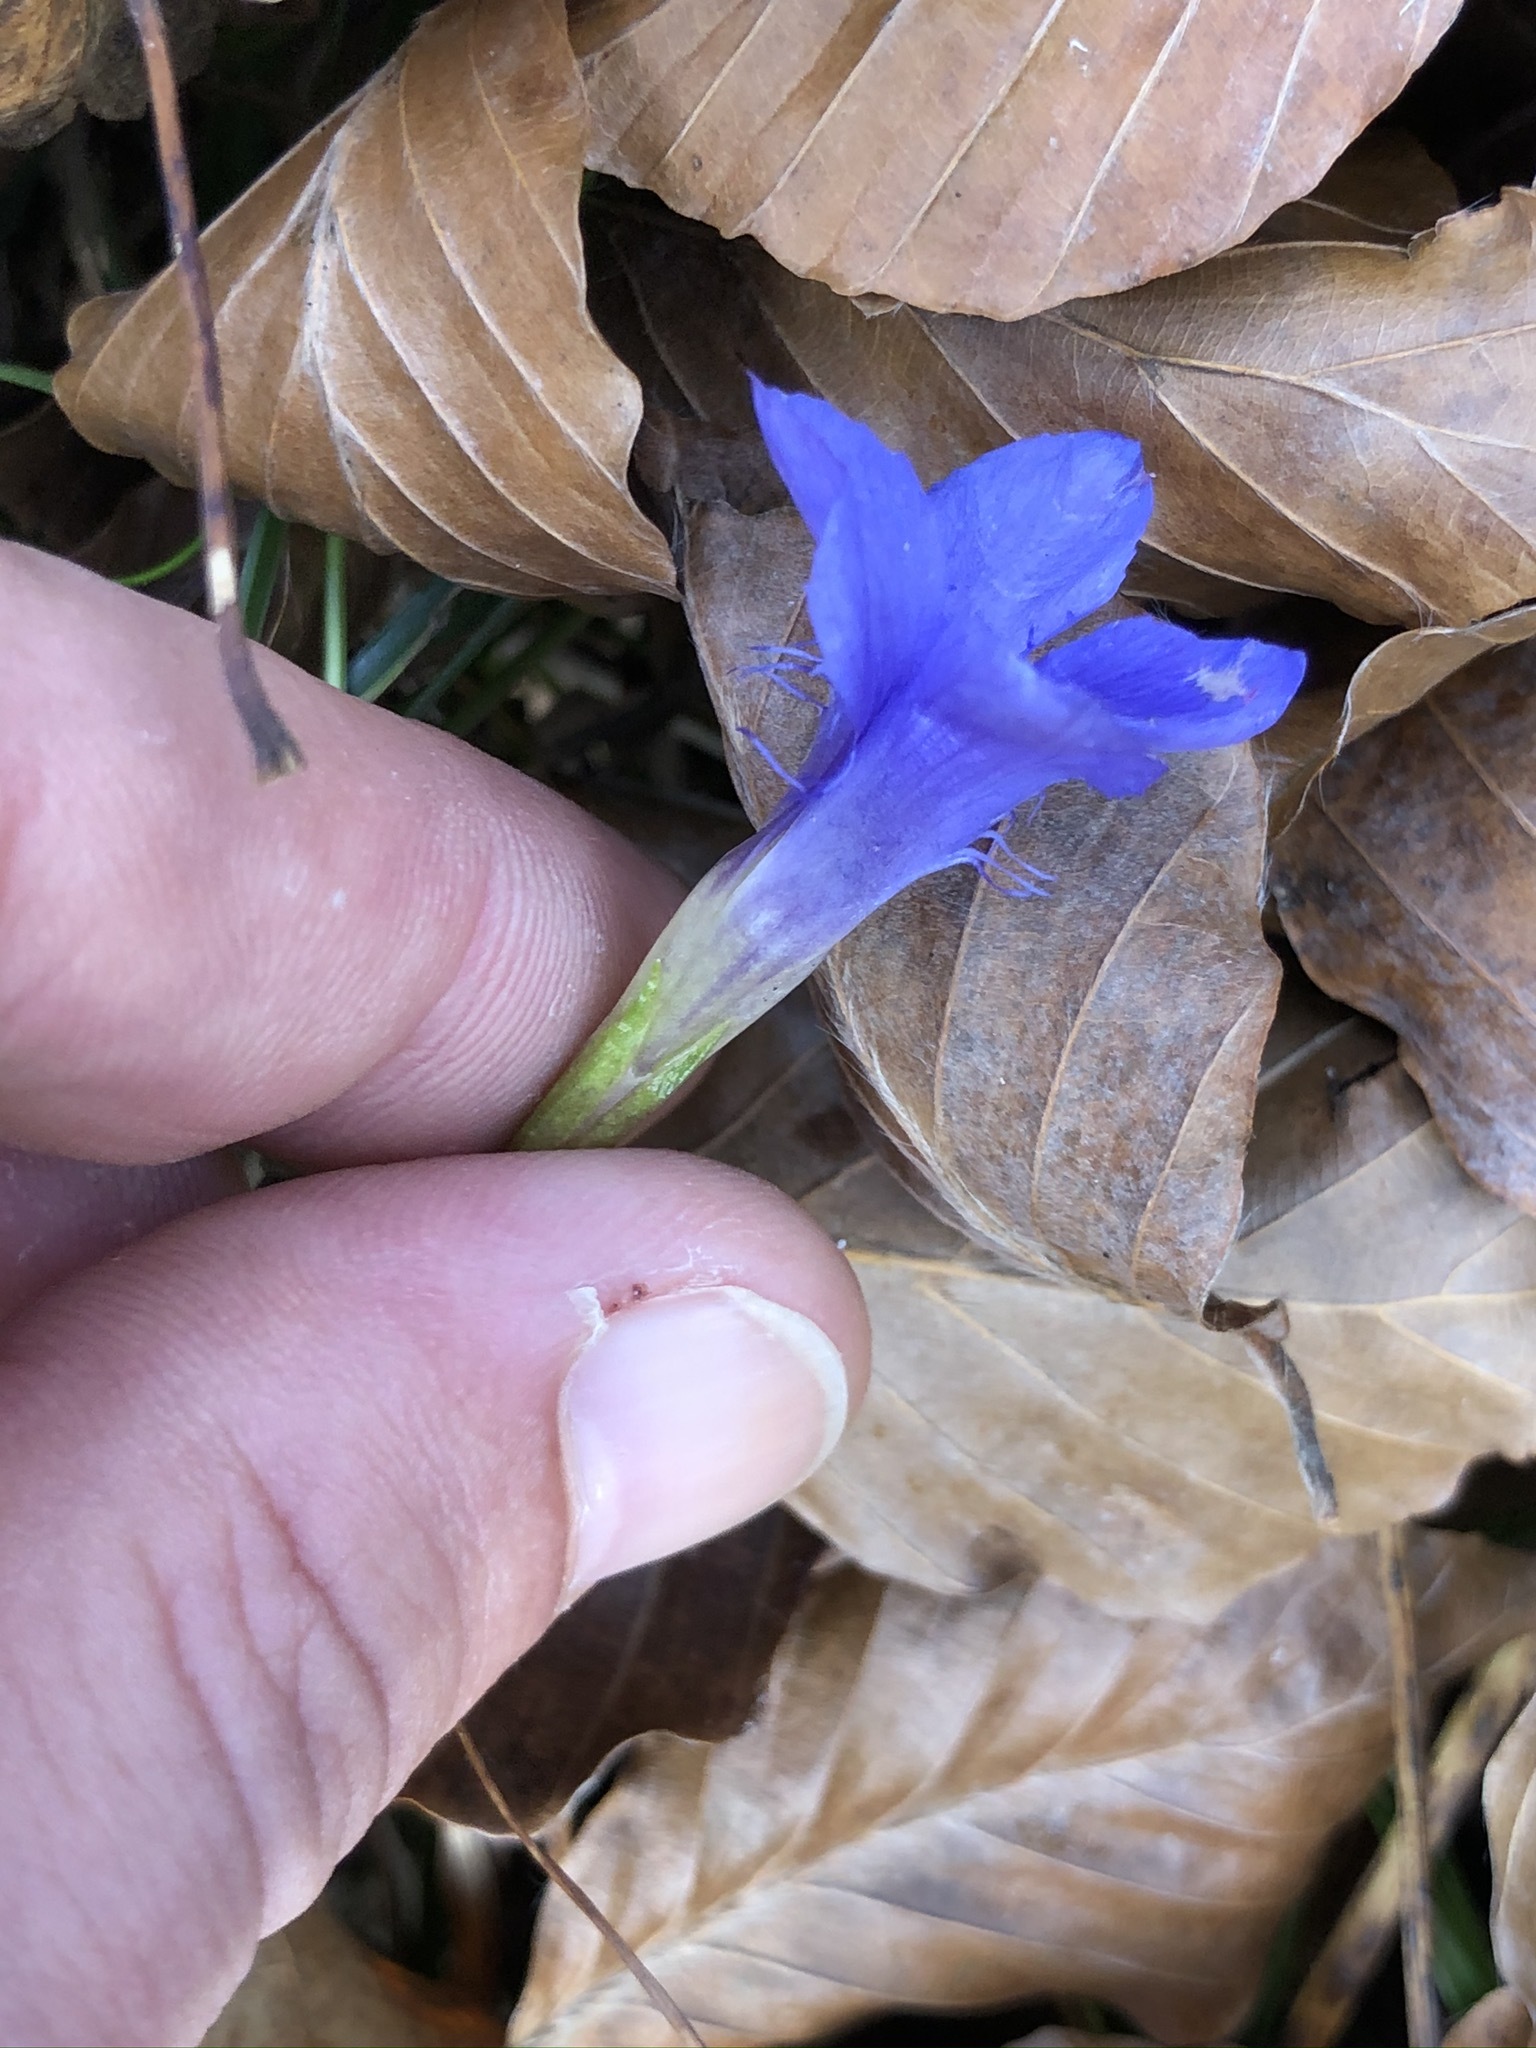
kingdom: Plantae
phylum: Tracheophyta
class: Magnoliopsida
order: Gentianales
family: Gentianaceae
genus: Gentianopsis
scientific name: Gentianopsis ciliata
